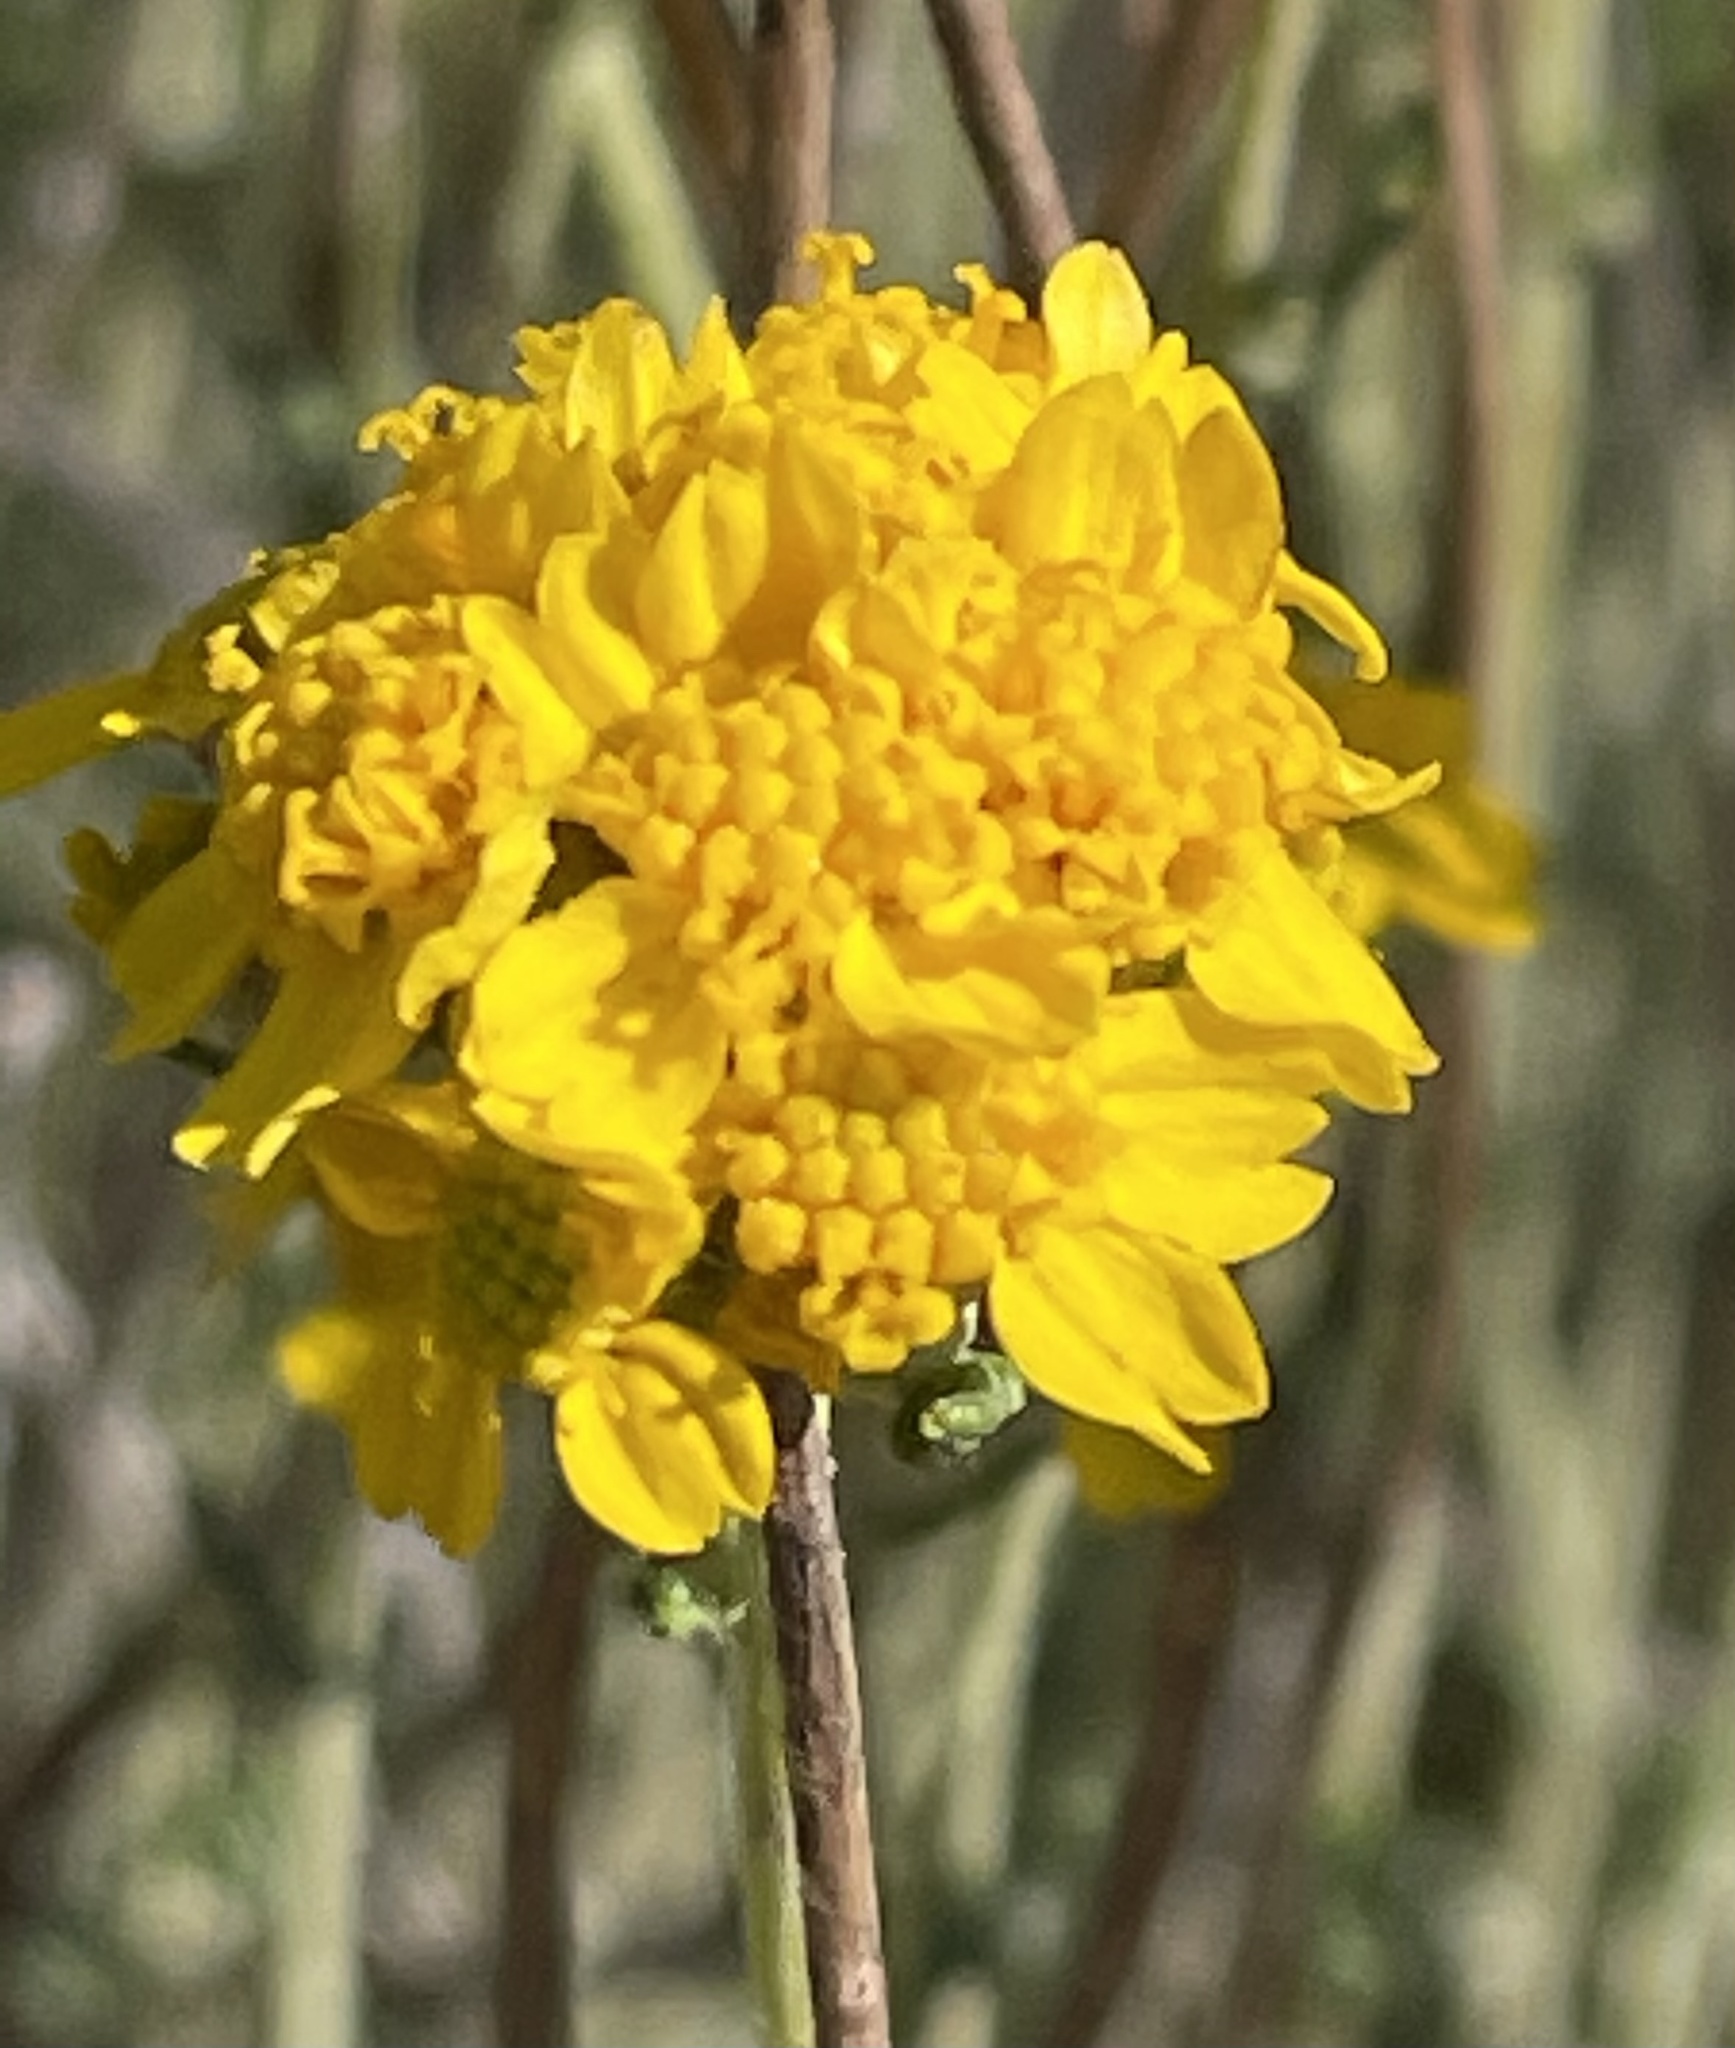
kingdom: Plantae
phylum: Tracheophyta
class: Magnoliopsida
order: Asterales
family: Asteraceae
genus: Eriophyllum
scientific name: Eriophyllum confertiflorum
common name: Golden-yarrow
